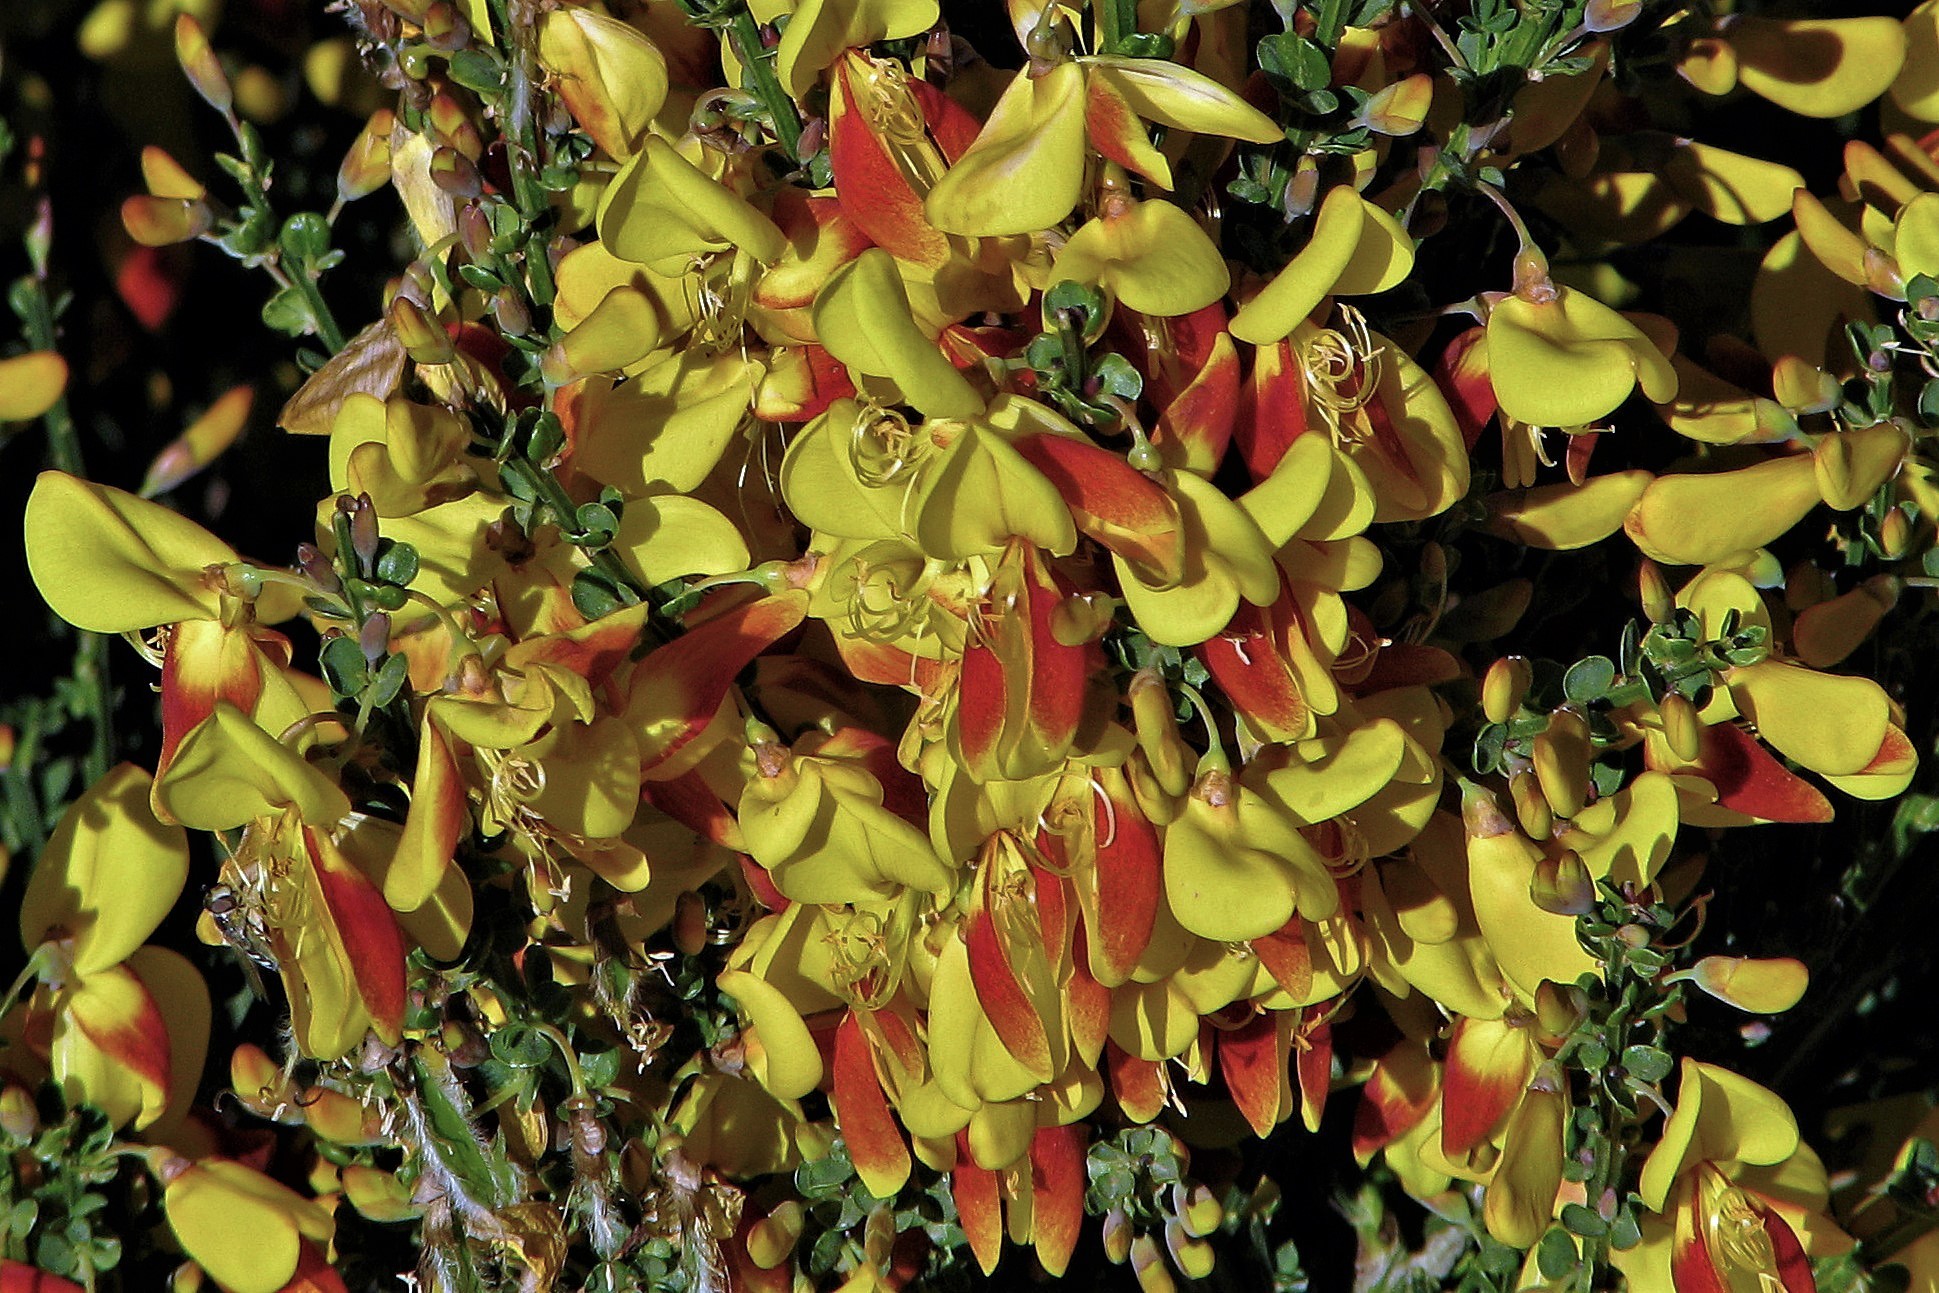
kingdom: Plantae
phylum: Tracheophyta
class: Magnoliopsida
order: Fabales
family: Fabaceae
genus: Cytisus
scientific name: Cytisus scoparius
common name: Scotch broom
